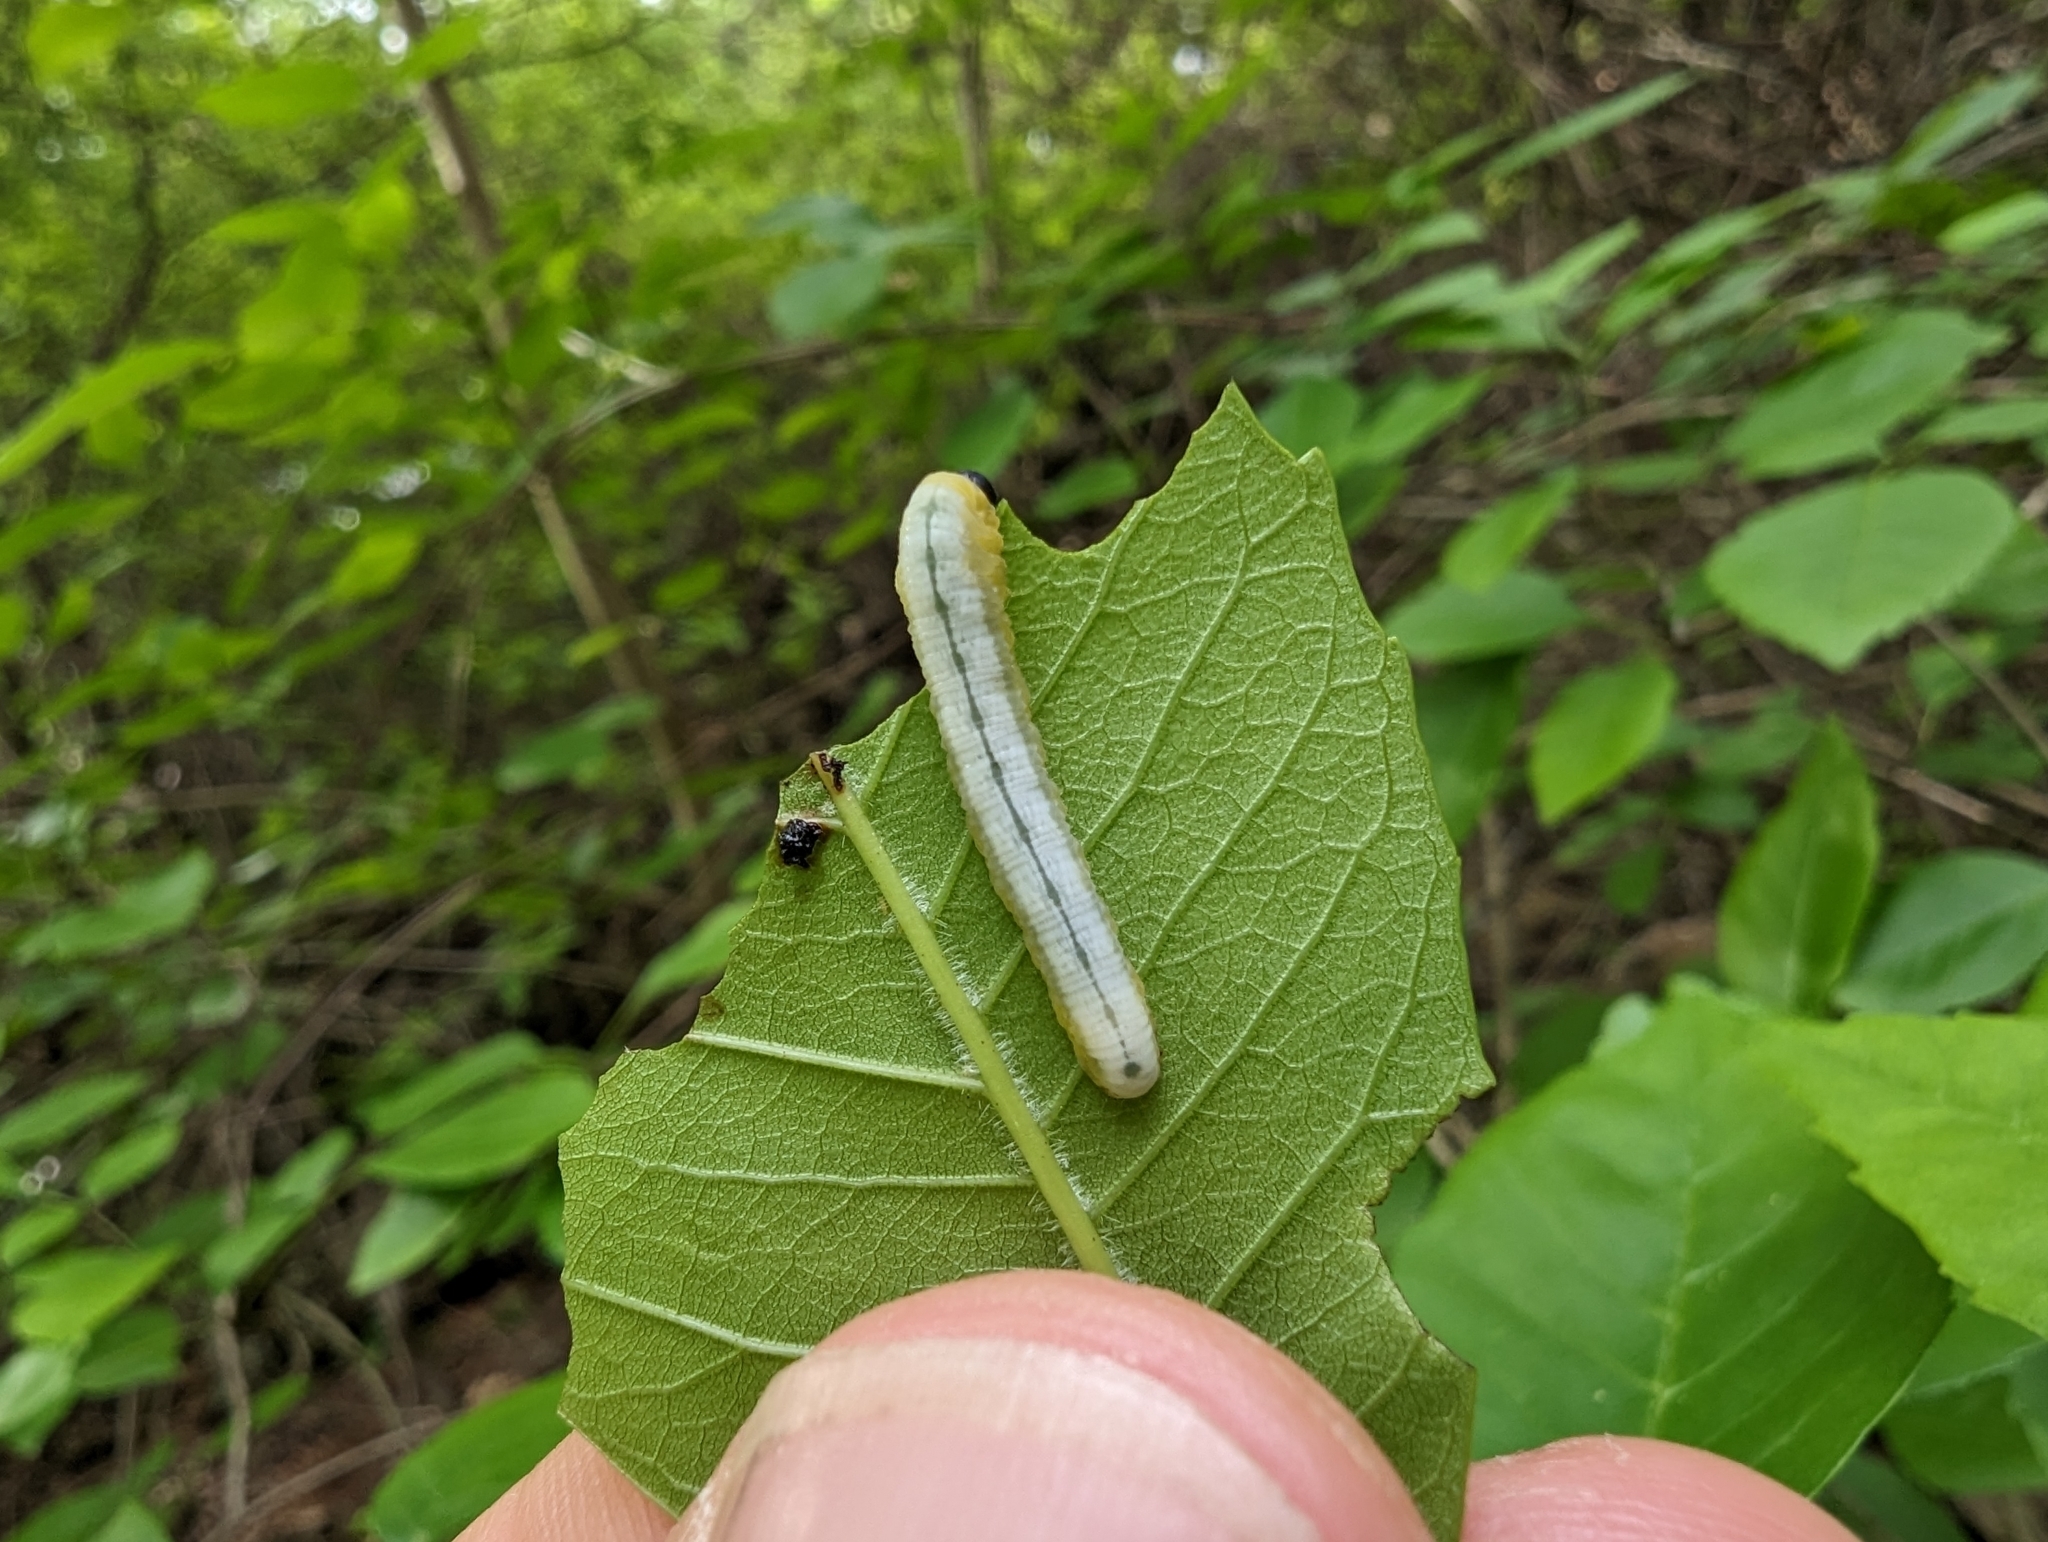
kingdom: Animalia
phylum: Arthropoda
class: Insecta
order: Hymenoptera
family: Tenthredinidae
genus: Tethida
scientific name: Tethida barda
